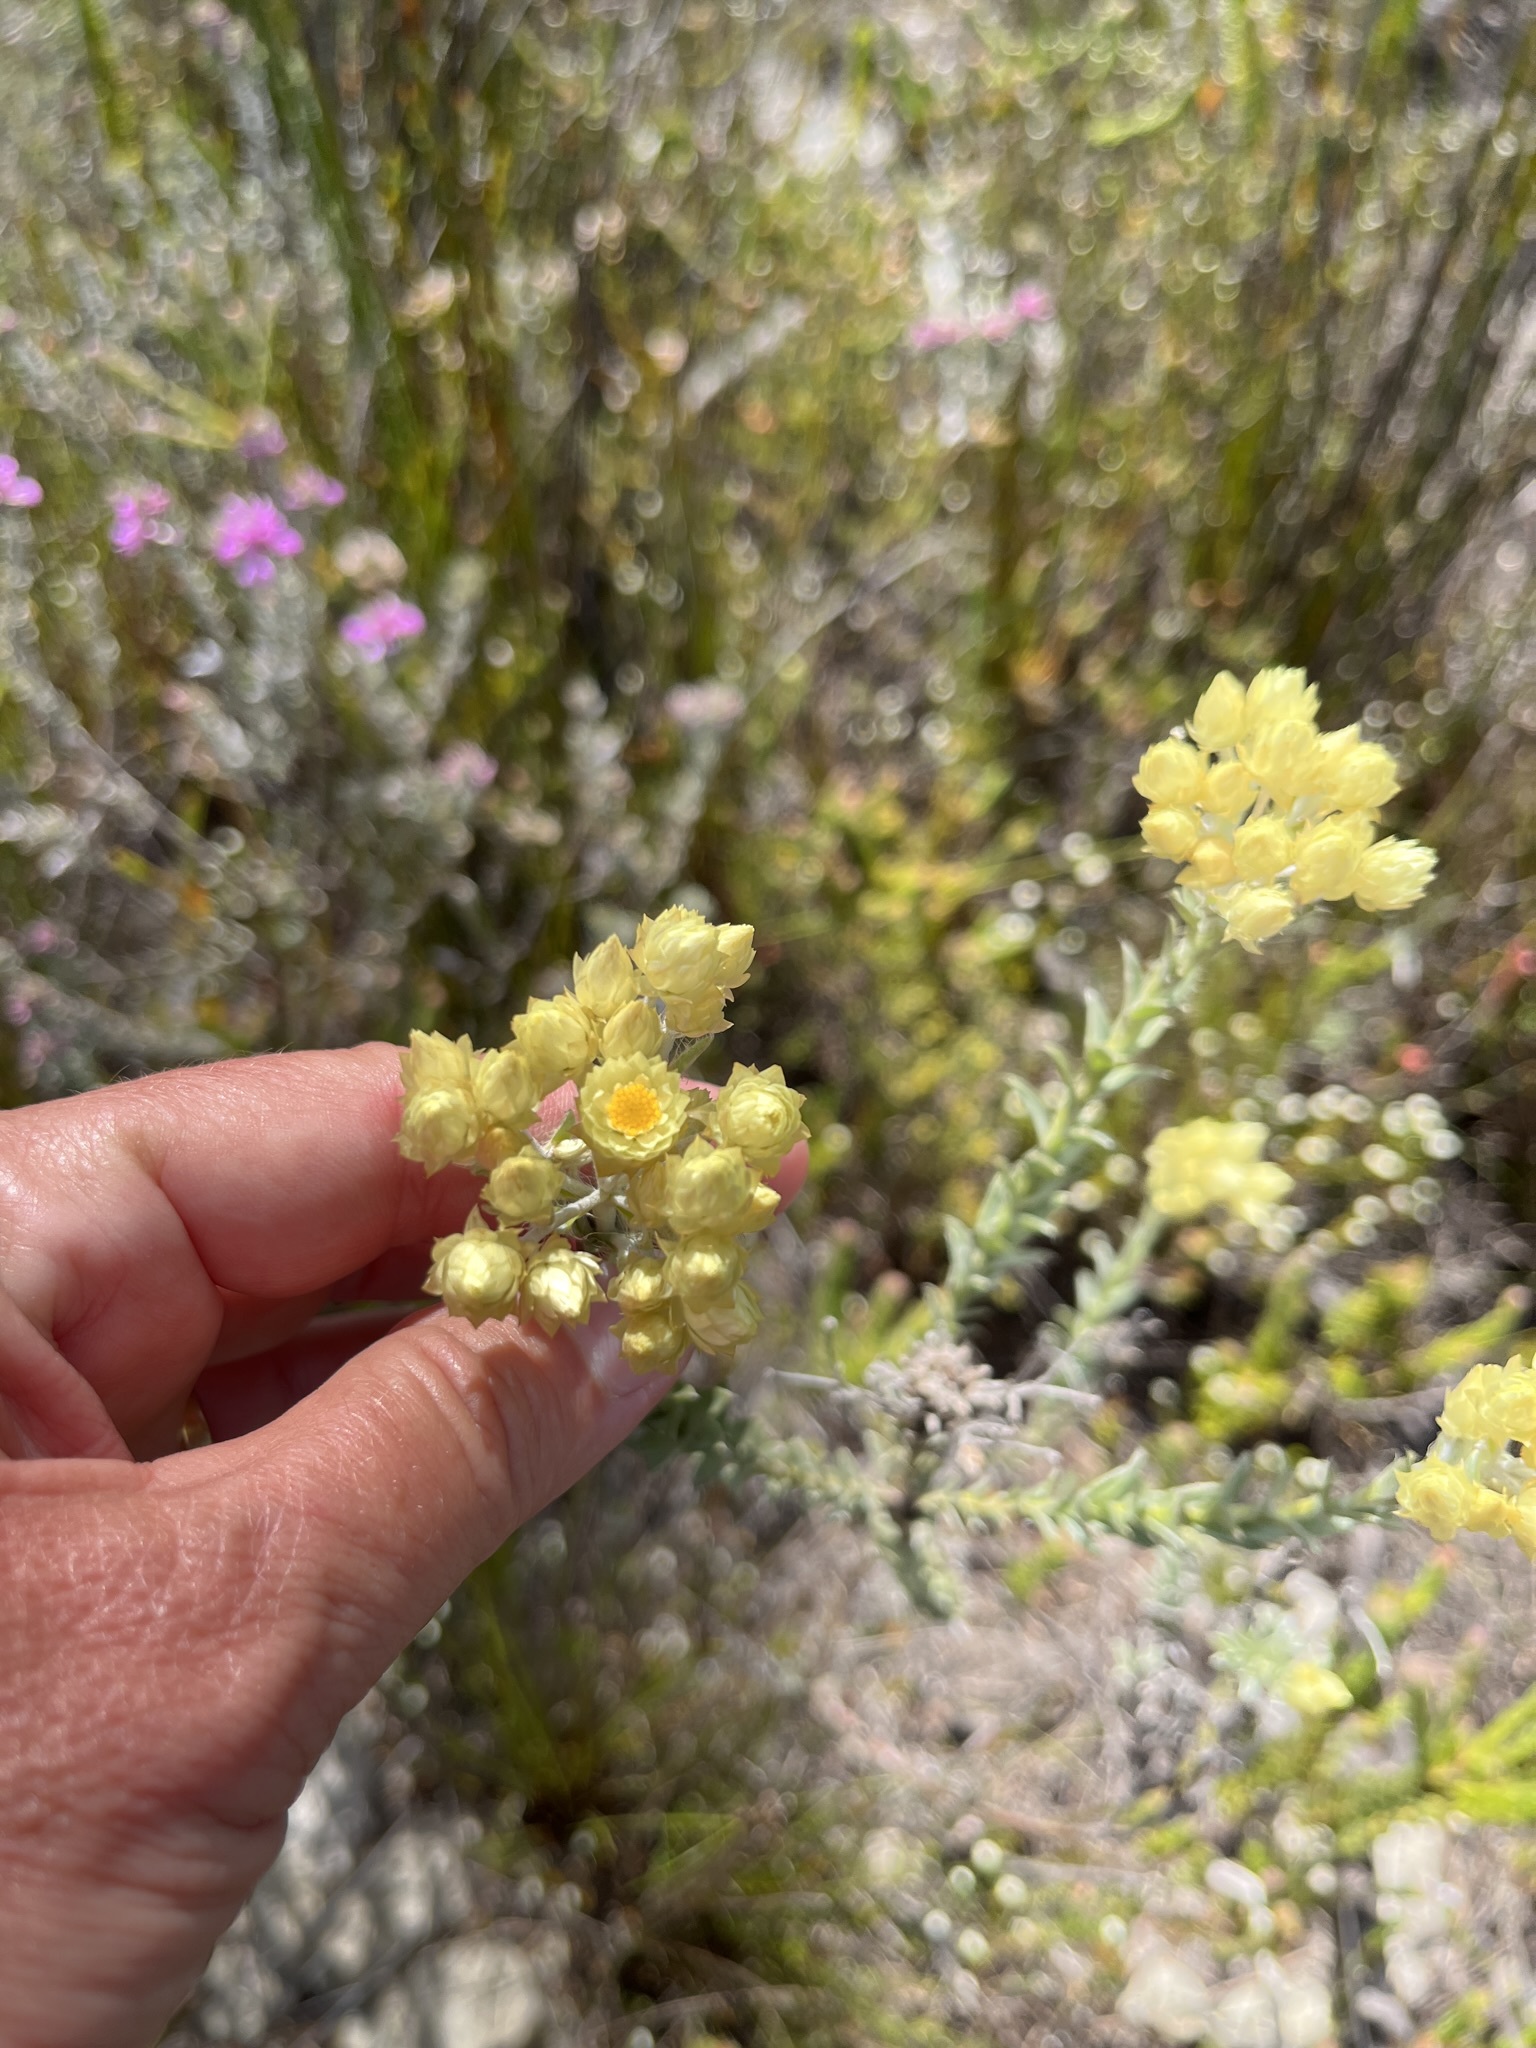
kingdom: Plantae
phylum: Tracheophyta
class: Magnoliopsida
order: Asterales
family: Asteraceae
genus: Achyranthemum
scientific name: Achyranthemum paniculatum
